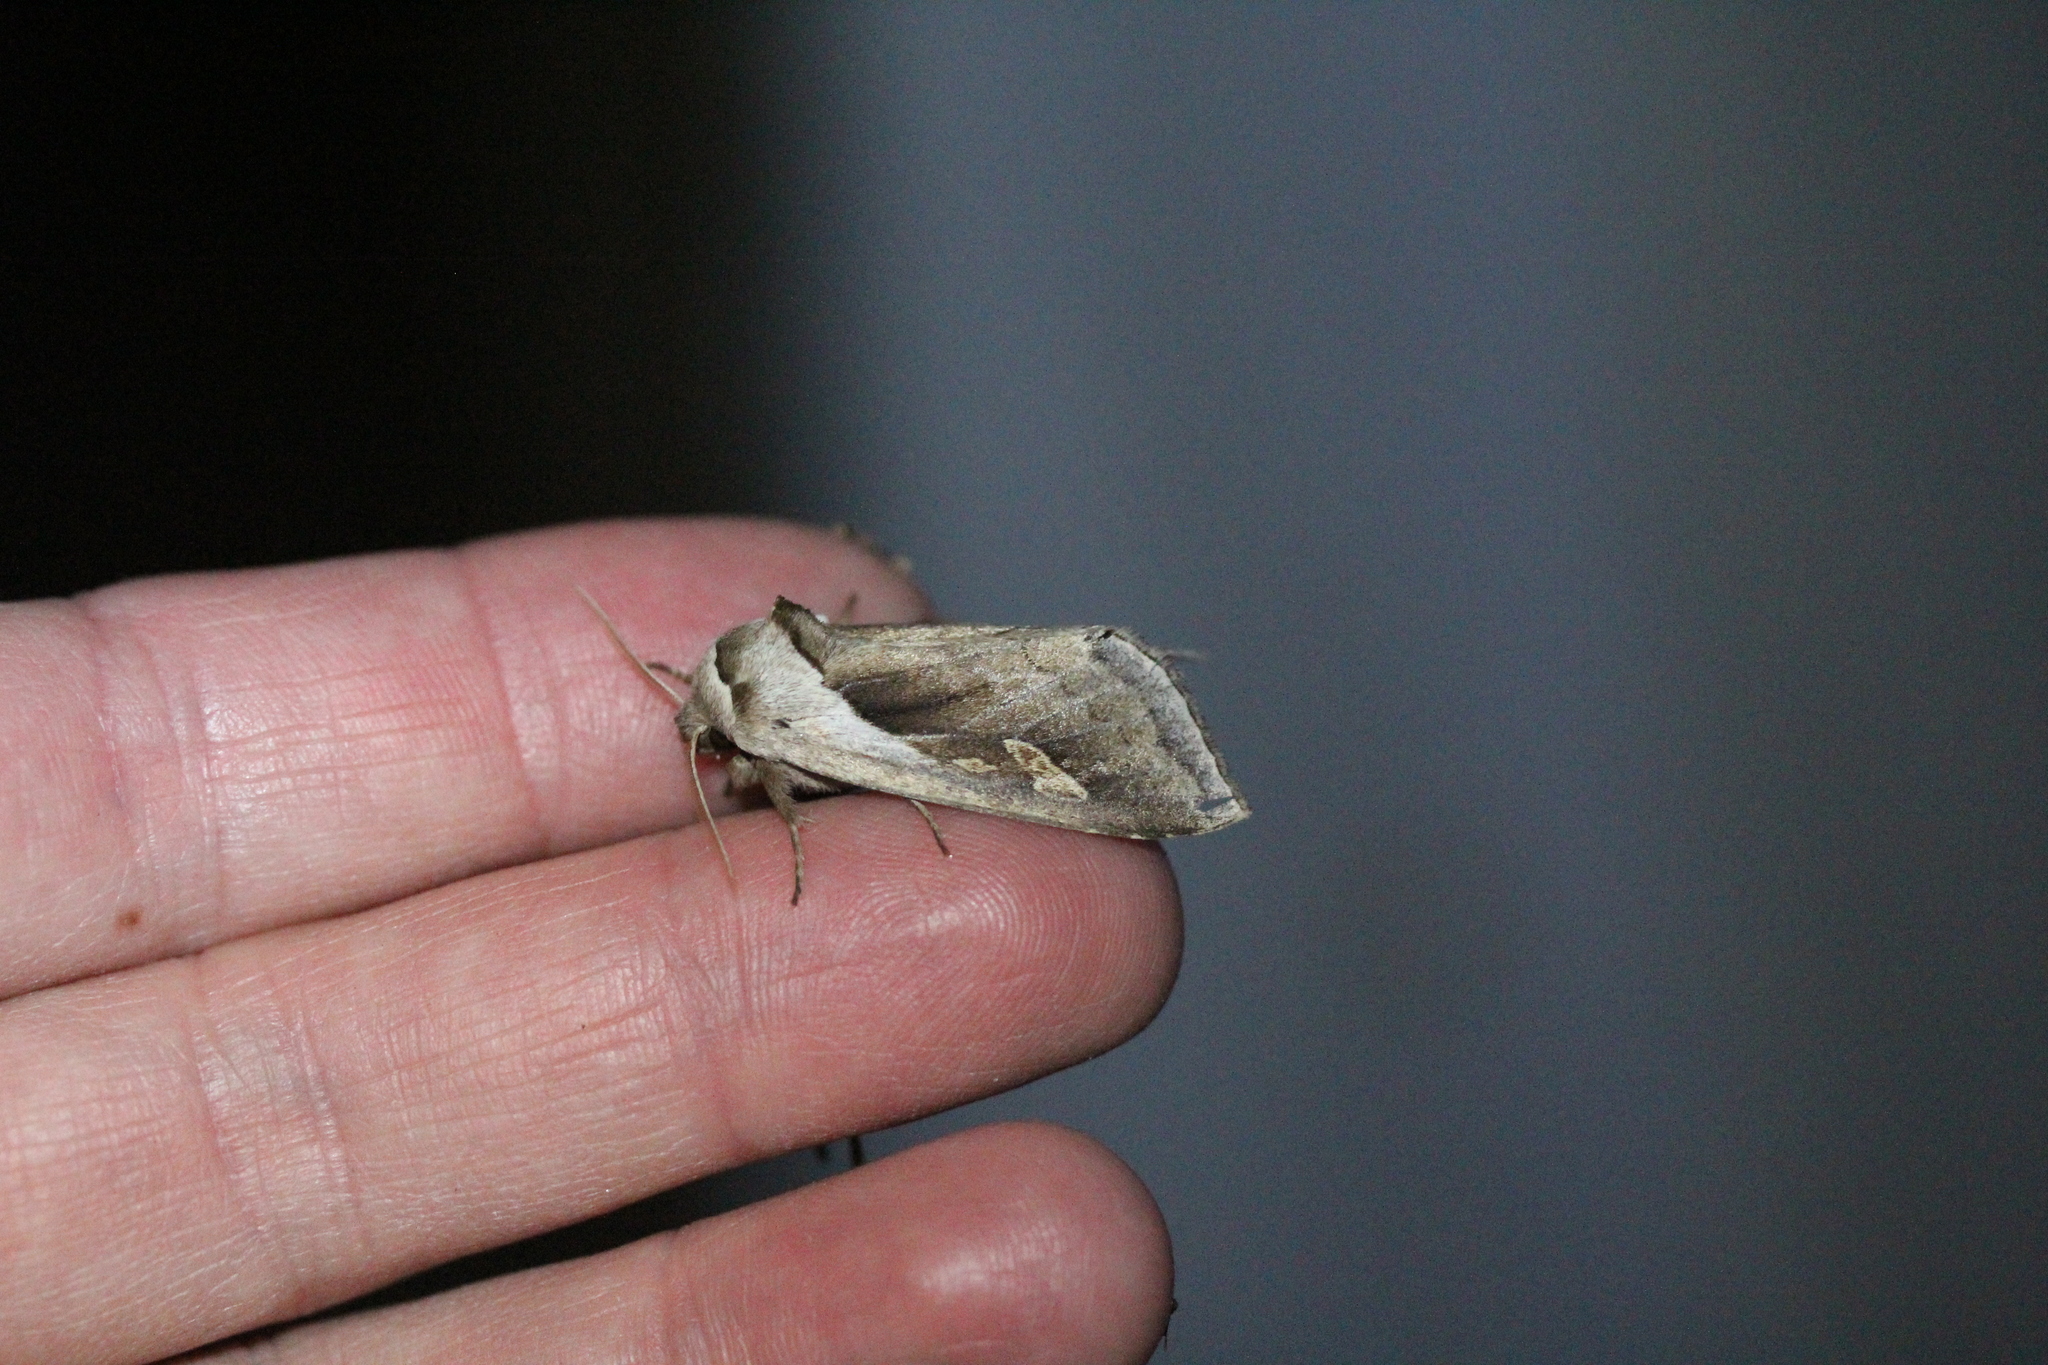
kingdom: Animalia
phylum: Arthropoda
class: Insecta
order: Lepidoptera
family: Noctuidae
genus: Bellura
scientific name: Bellura obliqua
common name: Cattail borer moth
